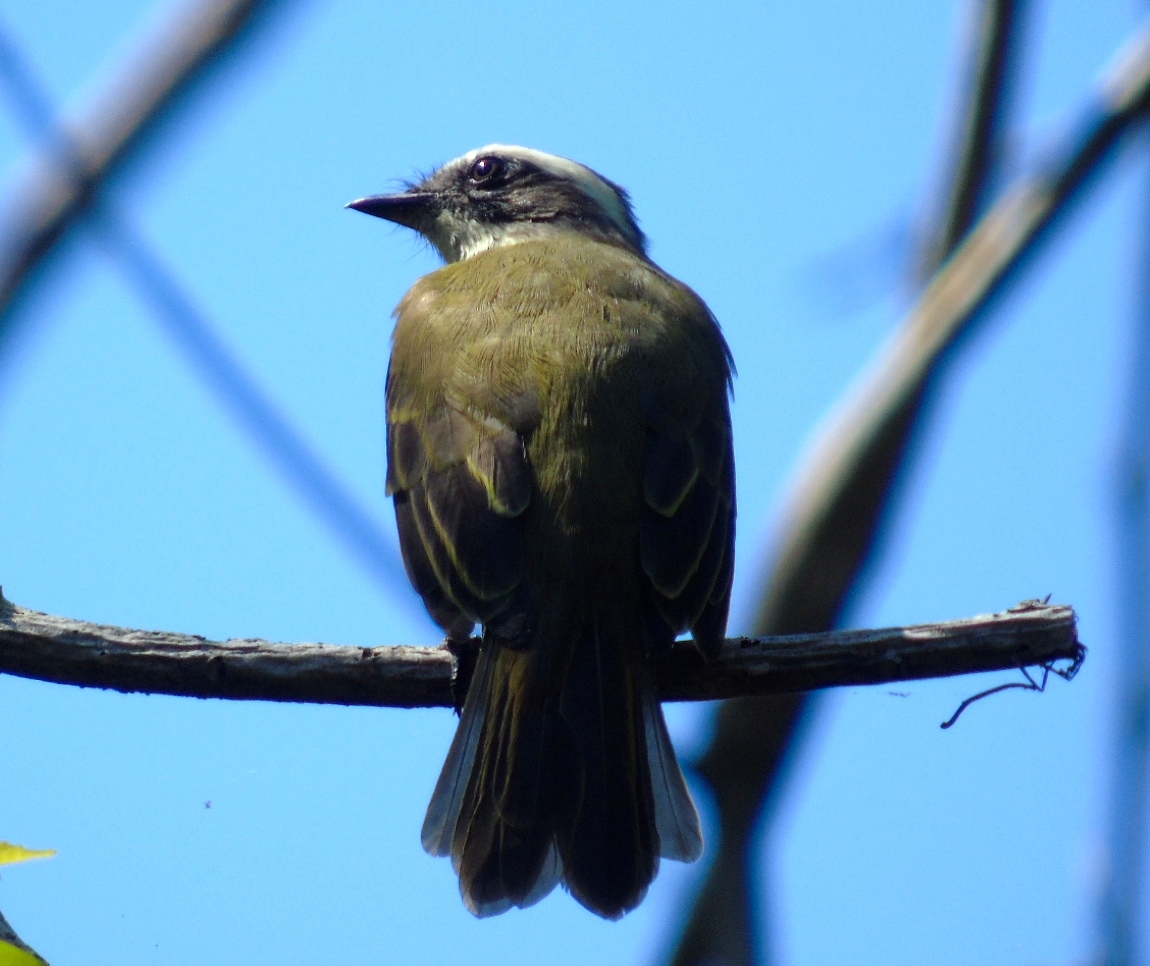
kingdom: Animalia
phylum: Chordata
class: Aves
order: Passeriformes
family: Tyrannidae
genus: Myiozetetes
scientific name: Myiozetetes similis
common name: Social flycatcher
